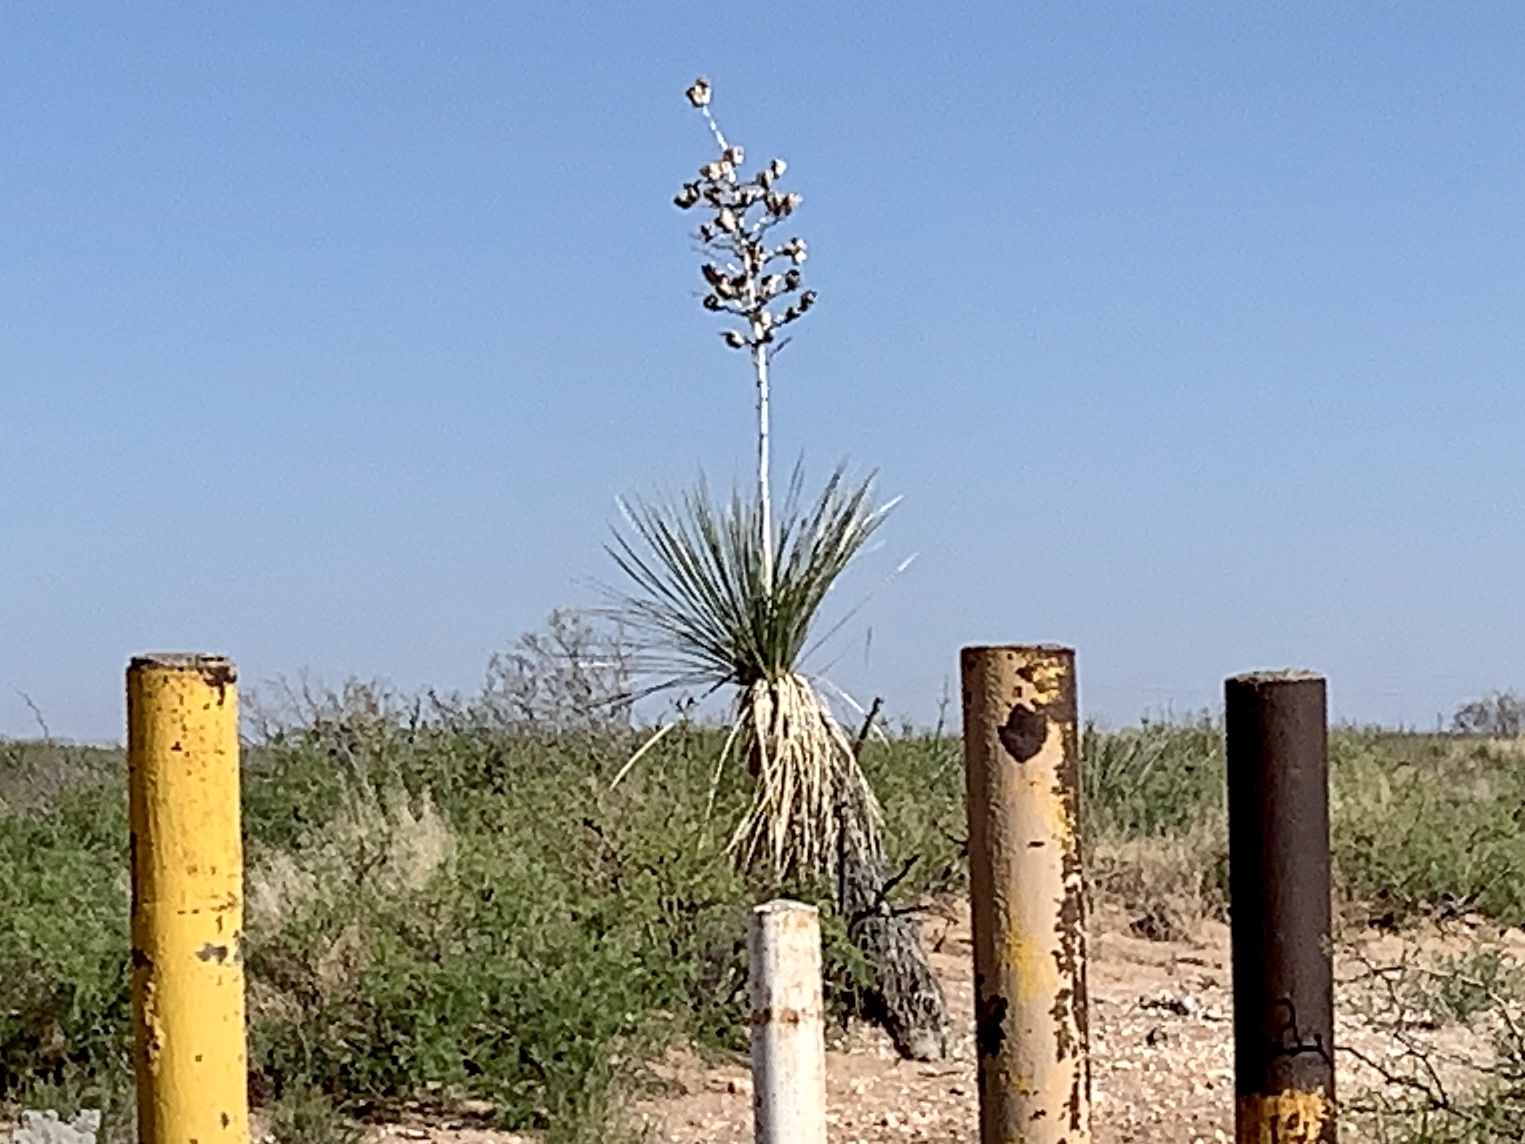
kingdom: Plantae
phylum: Tracheophyta
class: Liliopsida
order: Asparagales
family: Asparagaceae
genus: Yucca
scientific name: Yucca elata
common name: Palmella
